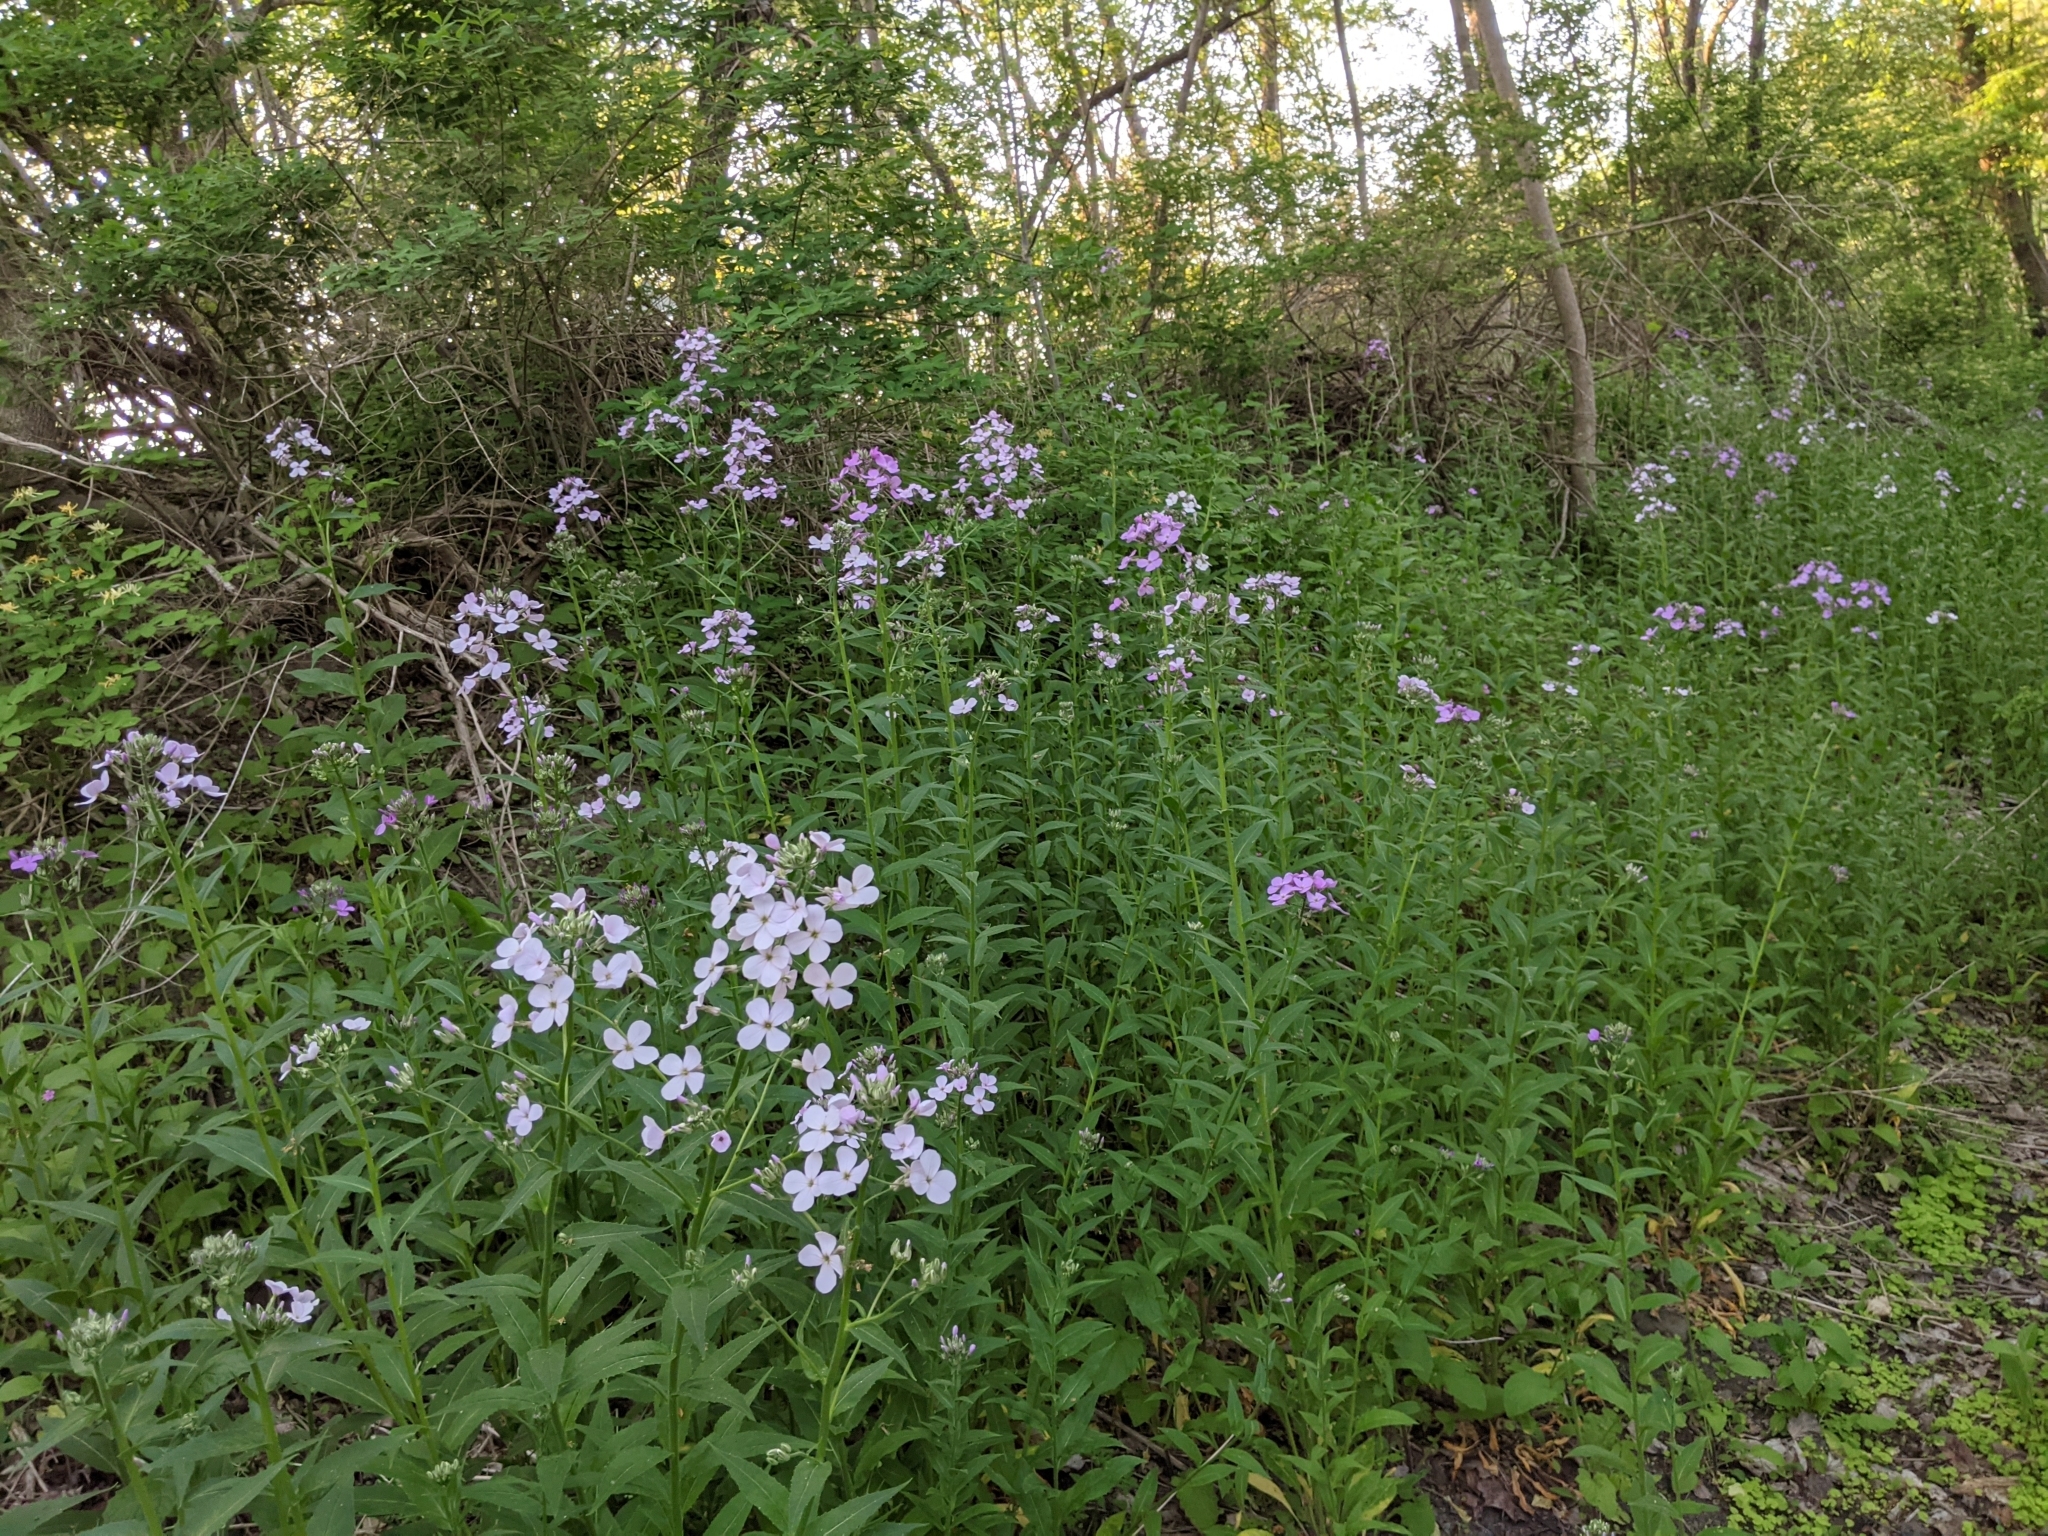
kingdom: Plantae
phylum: Tracheophyta
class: Magnoliopsida
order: Brassicales
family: Brassicaceae
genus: Hesperis
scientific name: Hesperis matronalis
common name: Dame's-violet
